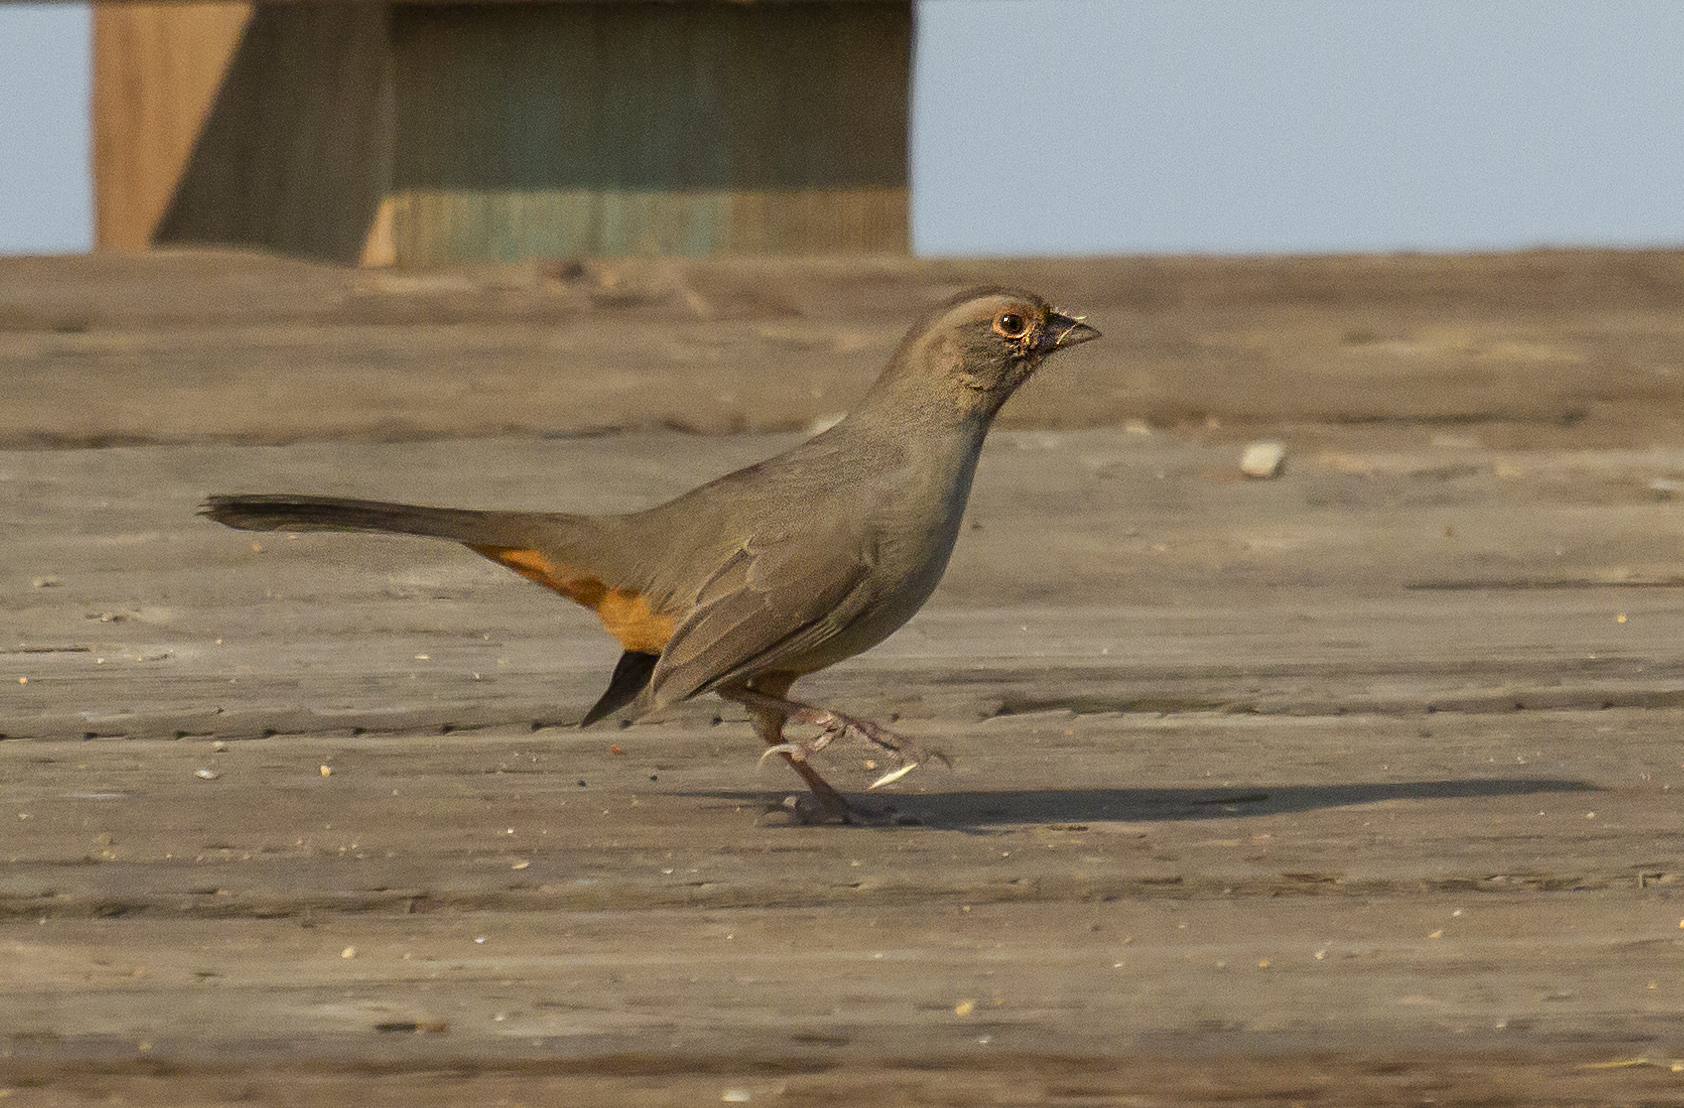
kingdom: Animalia
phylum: Chordata
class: Aves
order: Passeriformes
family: Passerellidae
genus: Melozone
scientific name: Melozone crissalis
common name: California towhee
